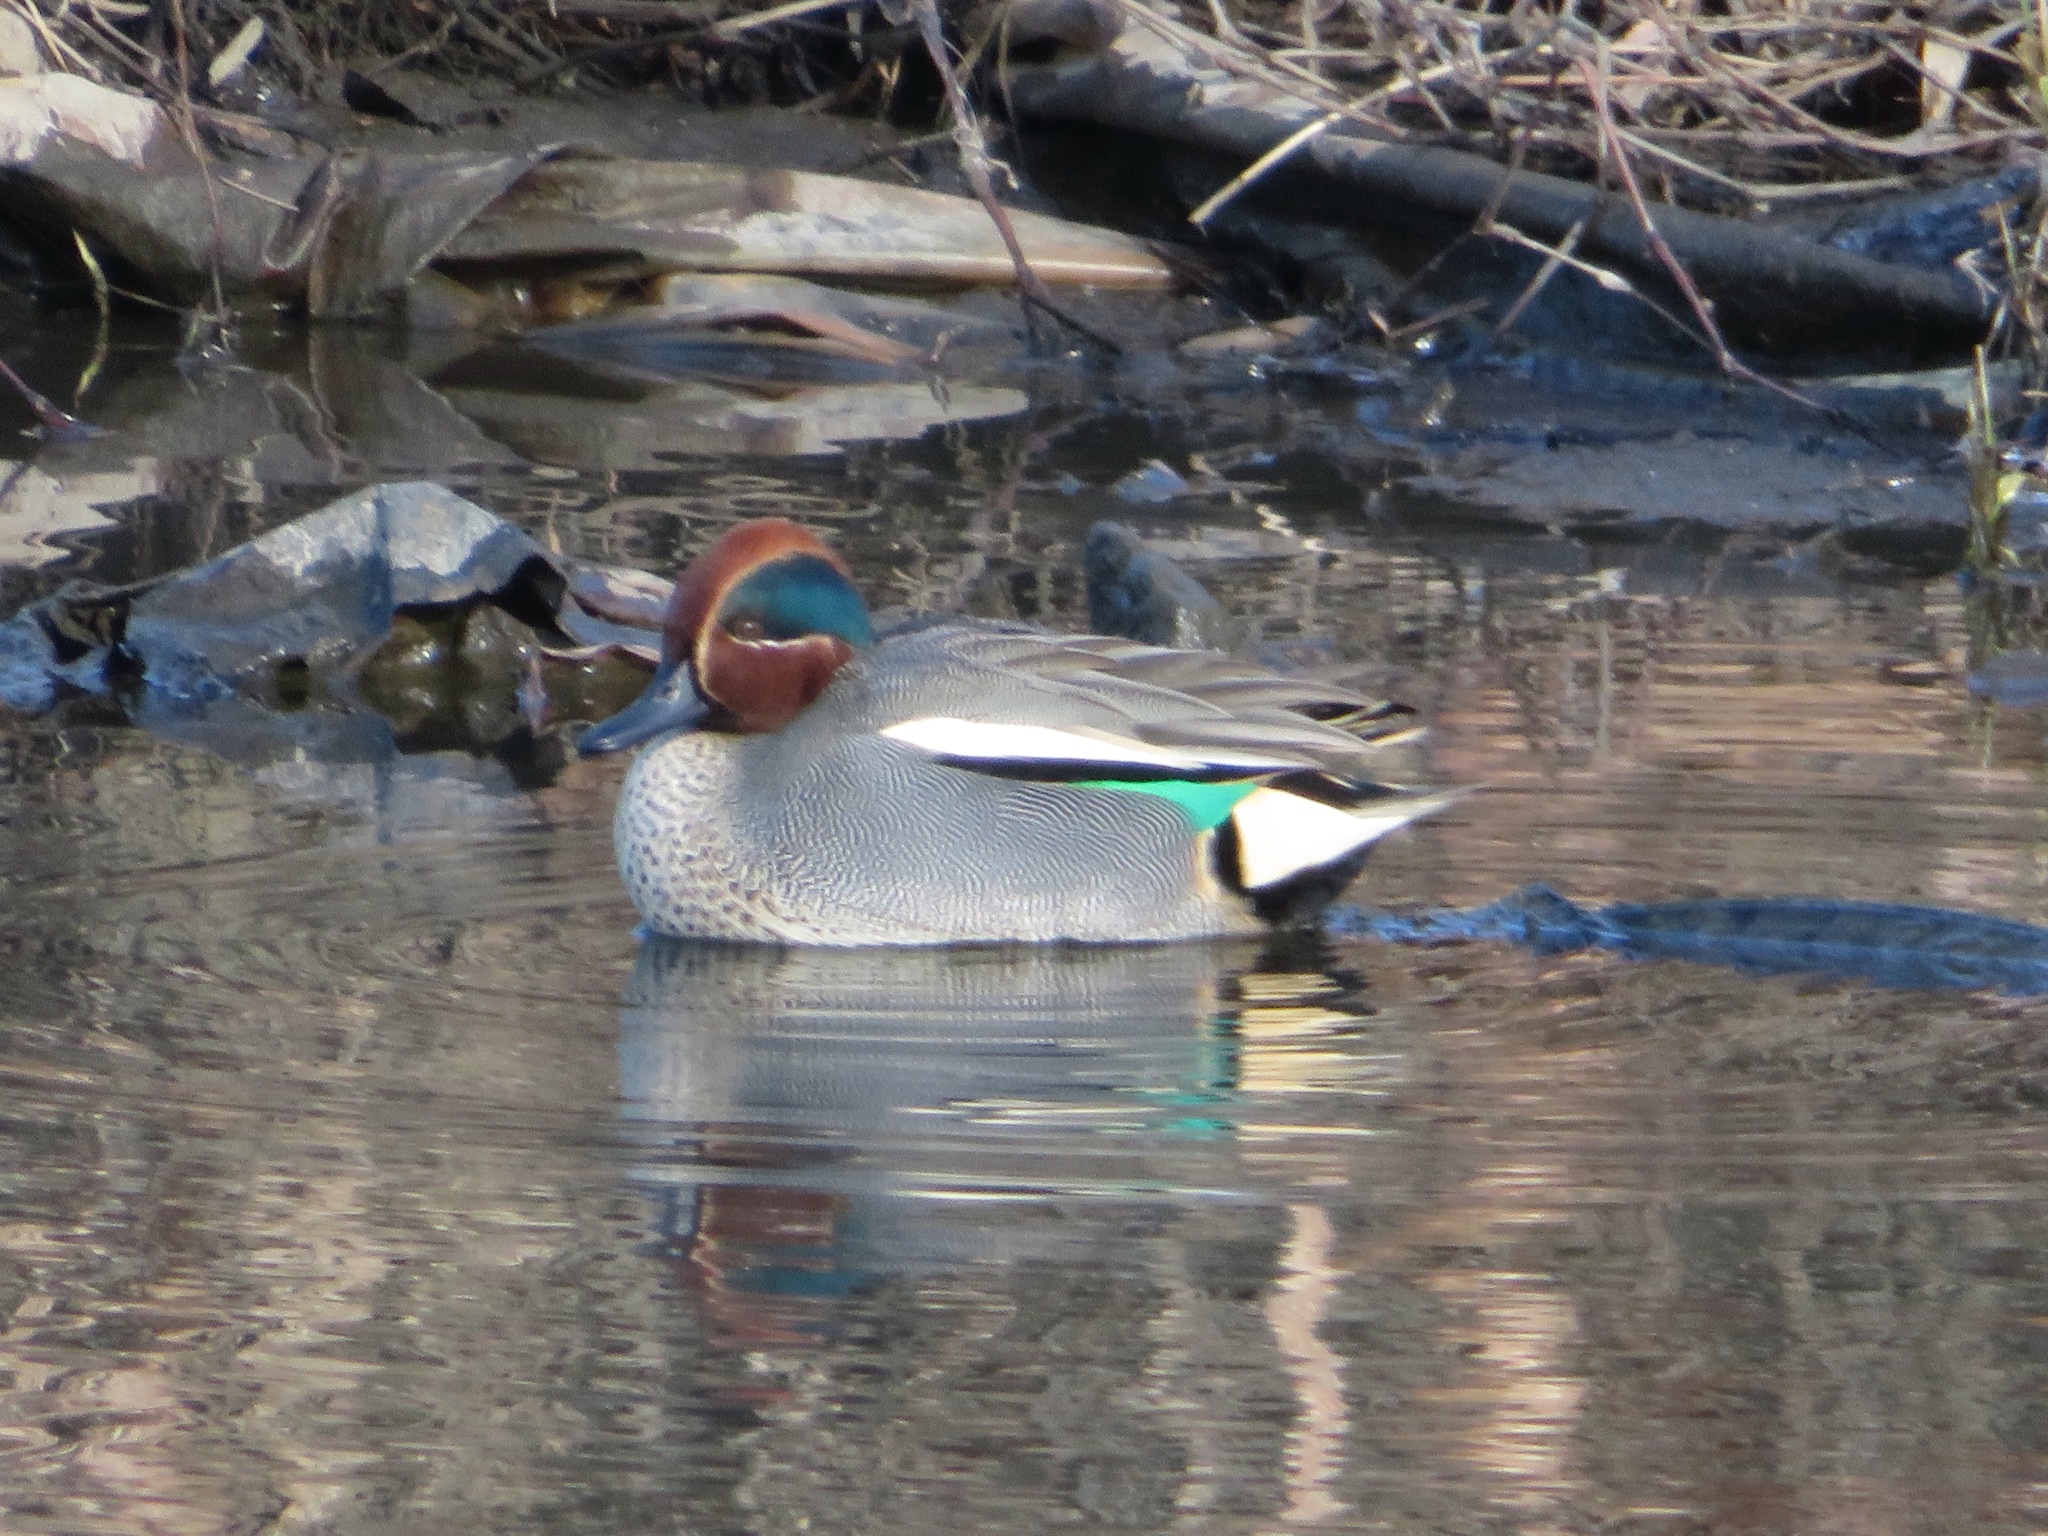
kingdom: Animalia
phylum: Chordata
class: Aves
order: Anseriformes
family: Anatidae
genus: Anas
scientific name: Anas crecca
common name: Eurasian teal
